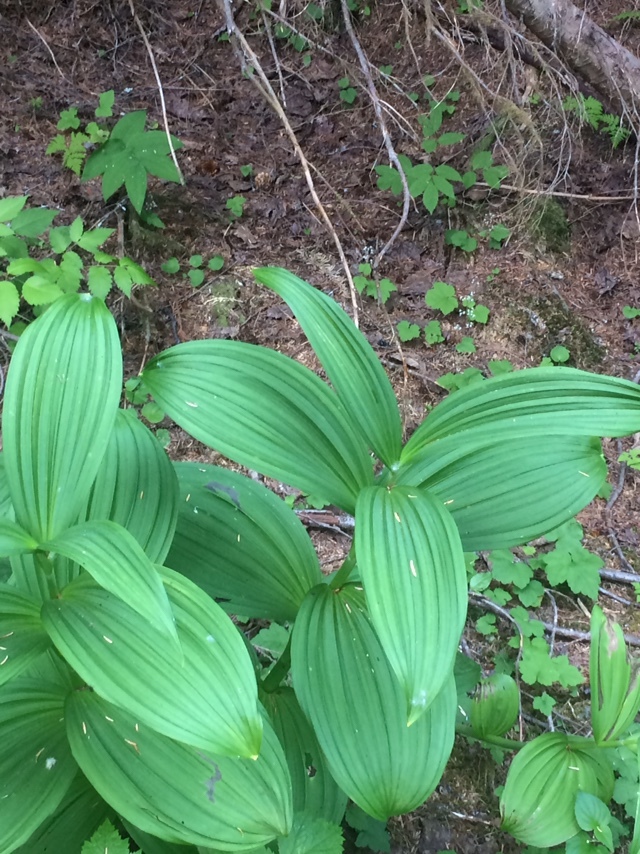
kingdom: Plantae
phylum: Tracheophyta
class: Liliopsida
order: Liliales
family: Melanthiaceae
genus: Veratrum
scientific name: Veratrum viride
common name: American false hellebore
